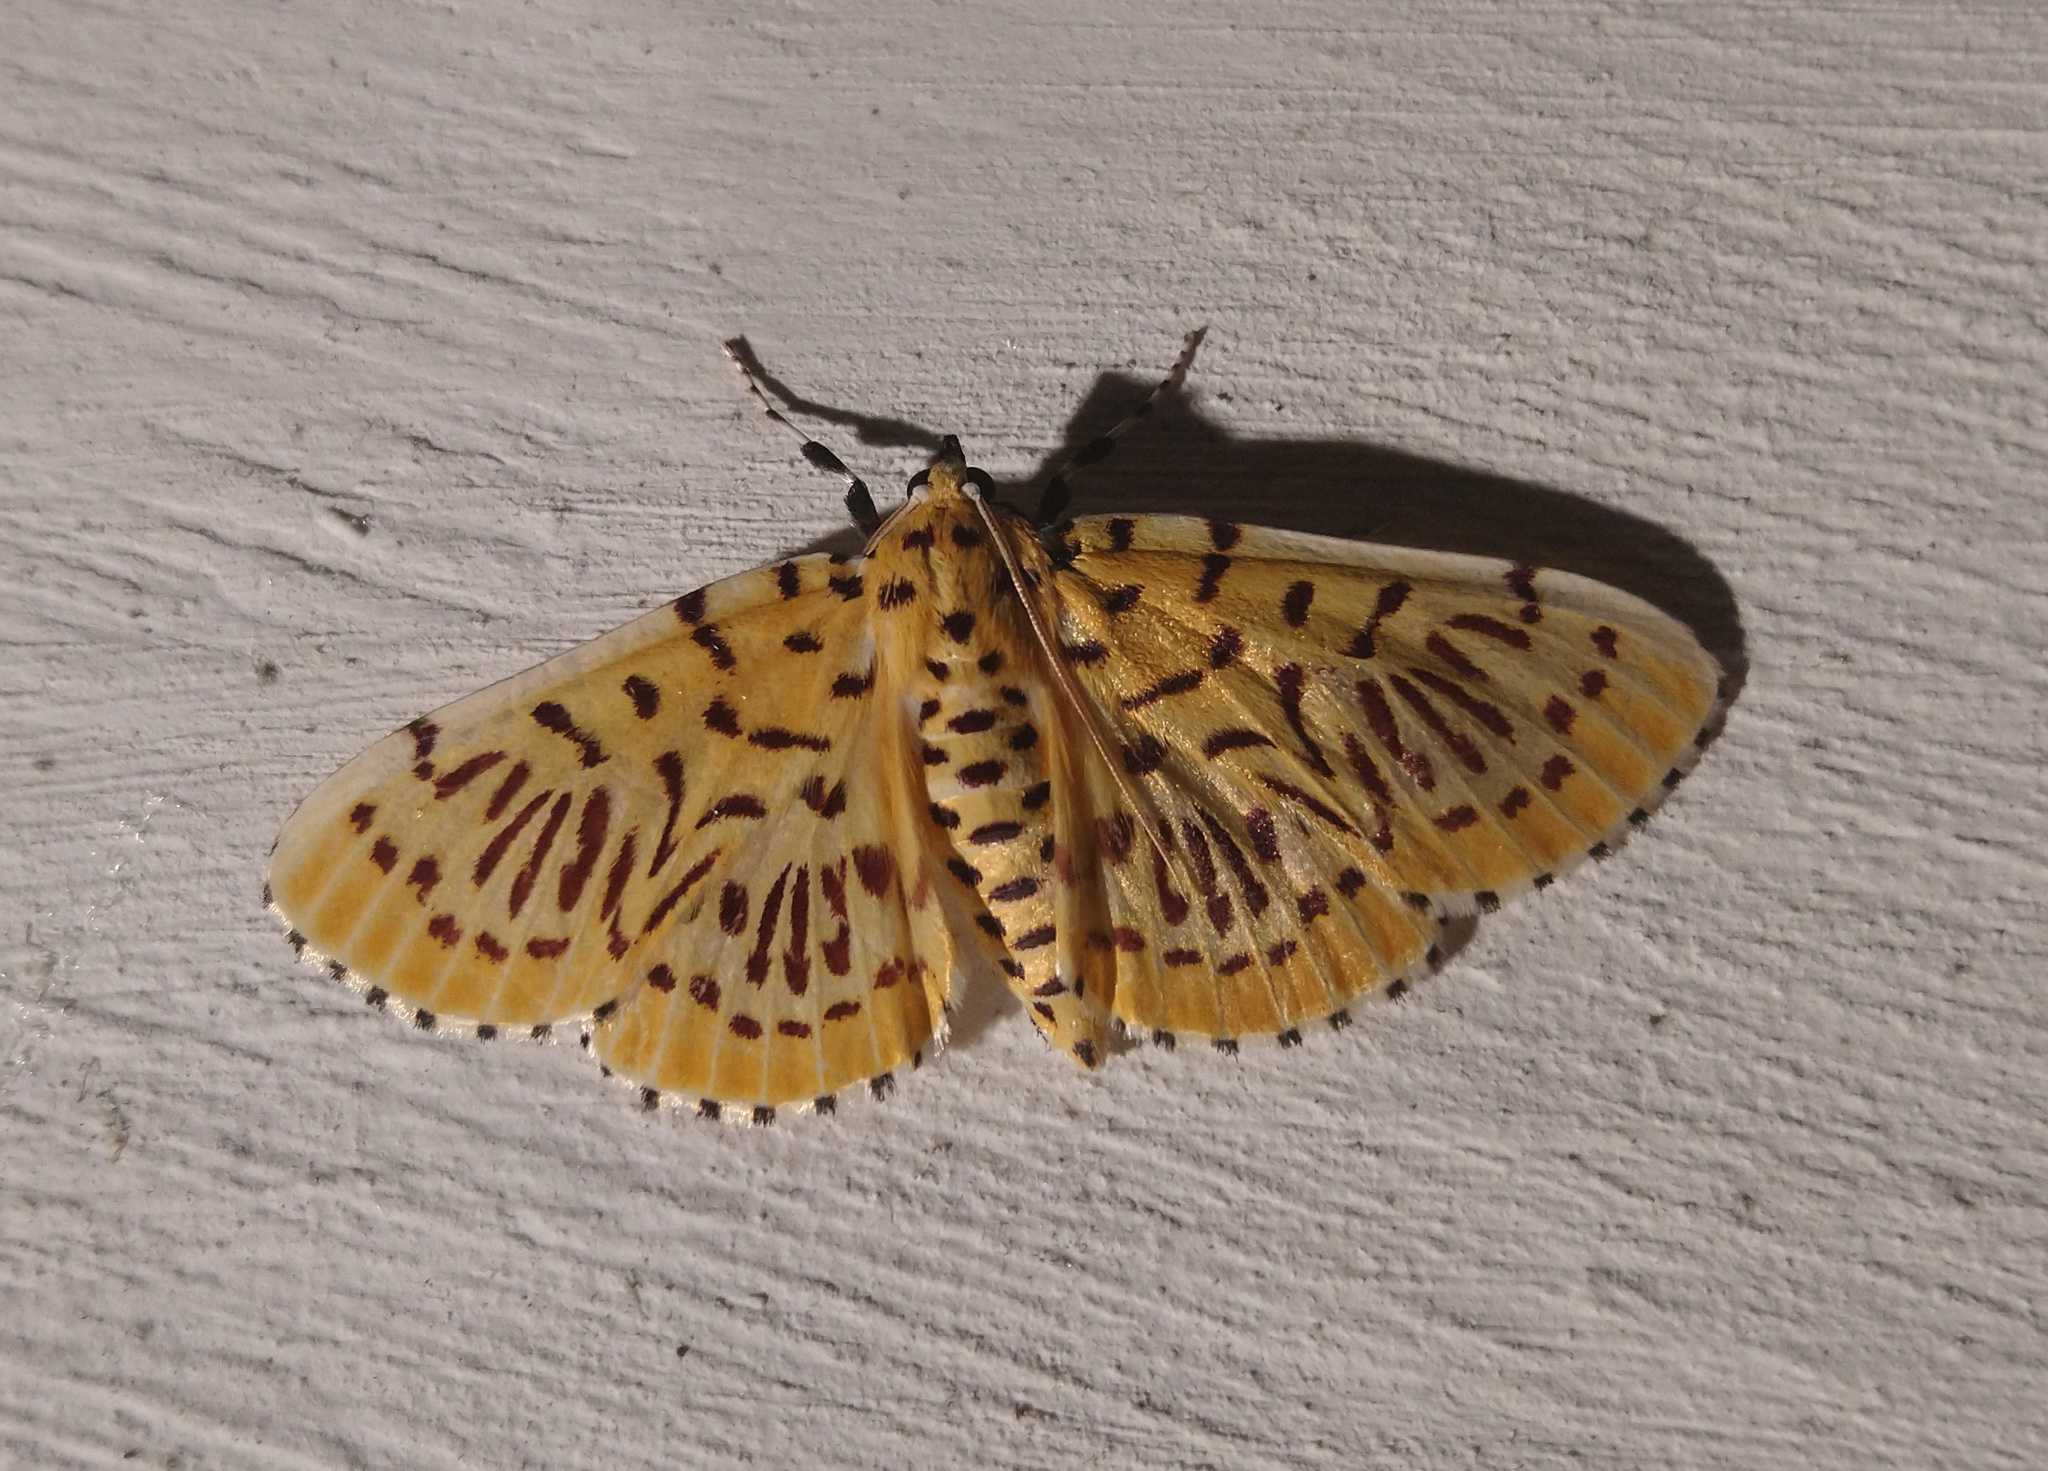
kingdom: Animalia
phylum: Arthropoda
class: Insecta
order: Lepidoptera
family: Crambidae
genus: Polygrammodes
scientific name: Polygrammodes runicalis
